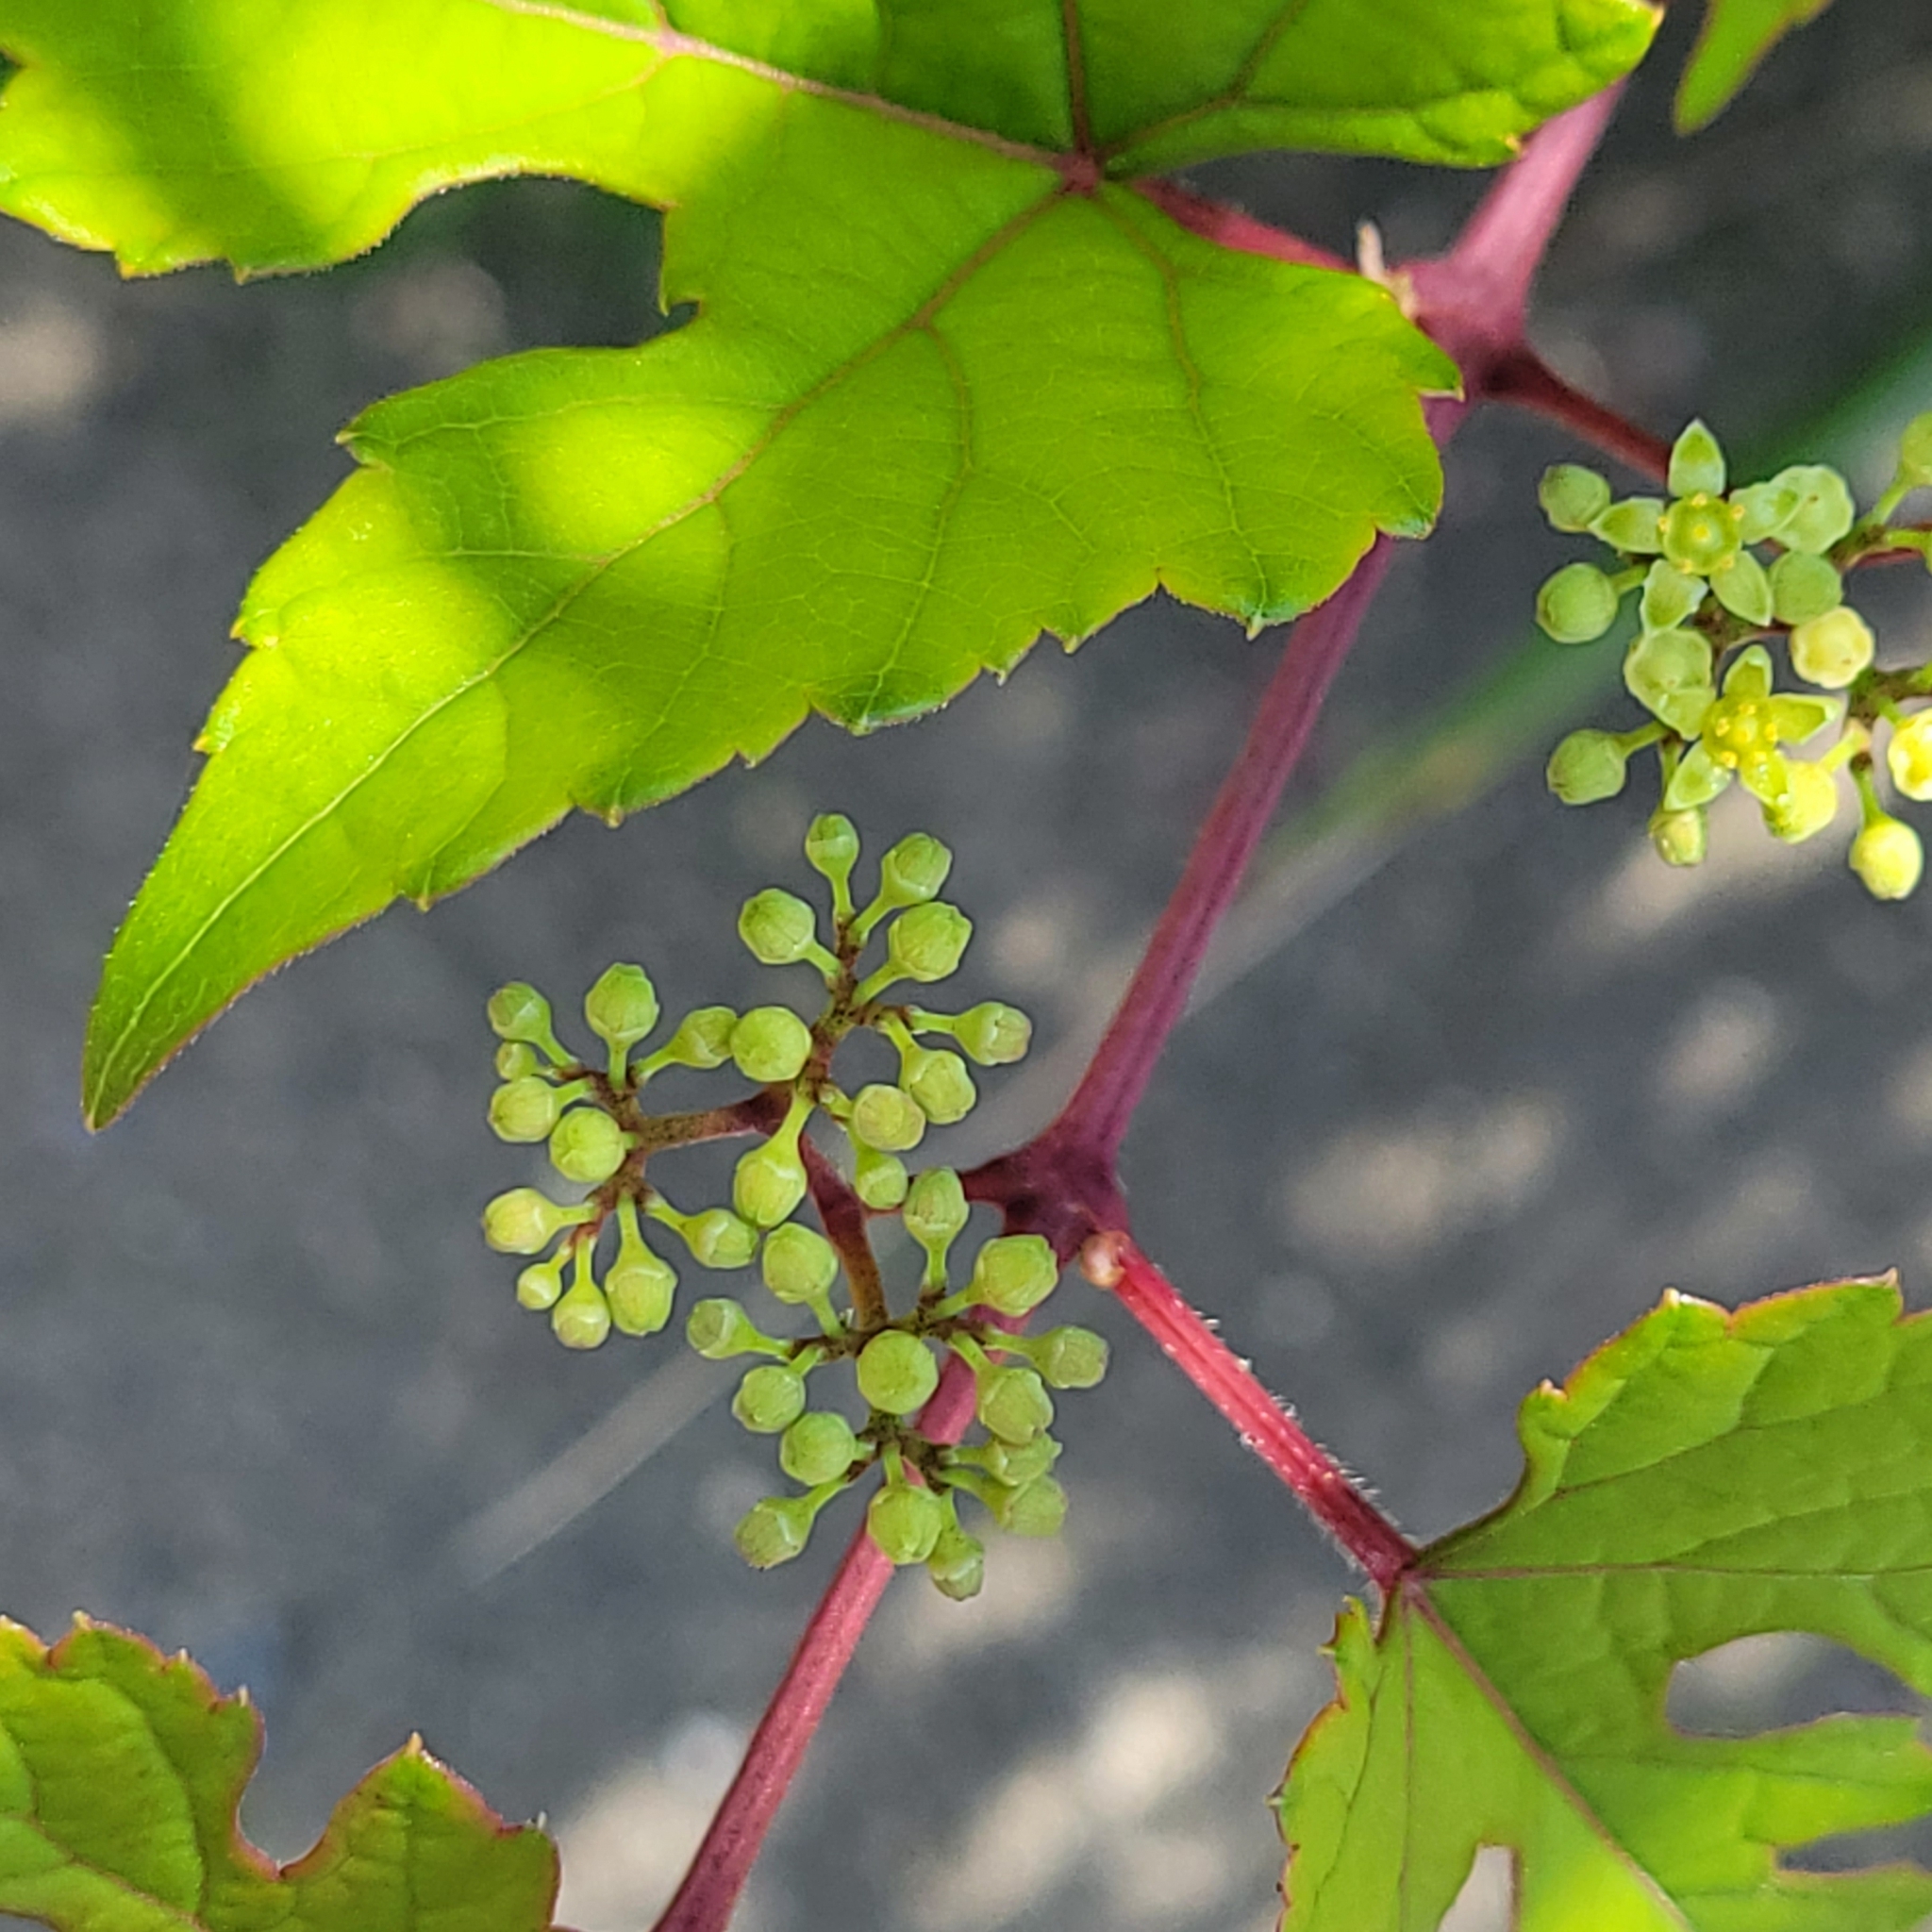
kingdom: Plantae
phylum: Tracheophyta
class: Magnoliopsida
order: Vitales
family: Vitaceae
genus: Ampelopsis
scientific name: Ampelopsis glandulosa
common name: Amur peppervine
